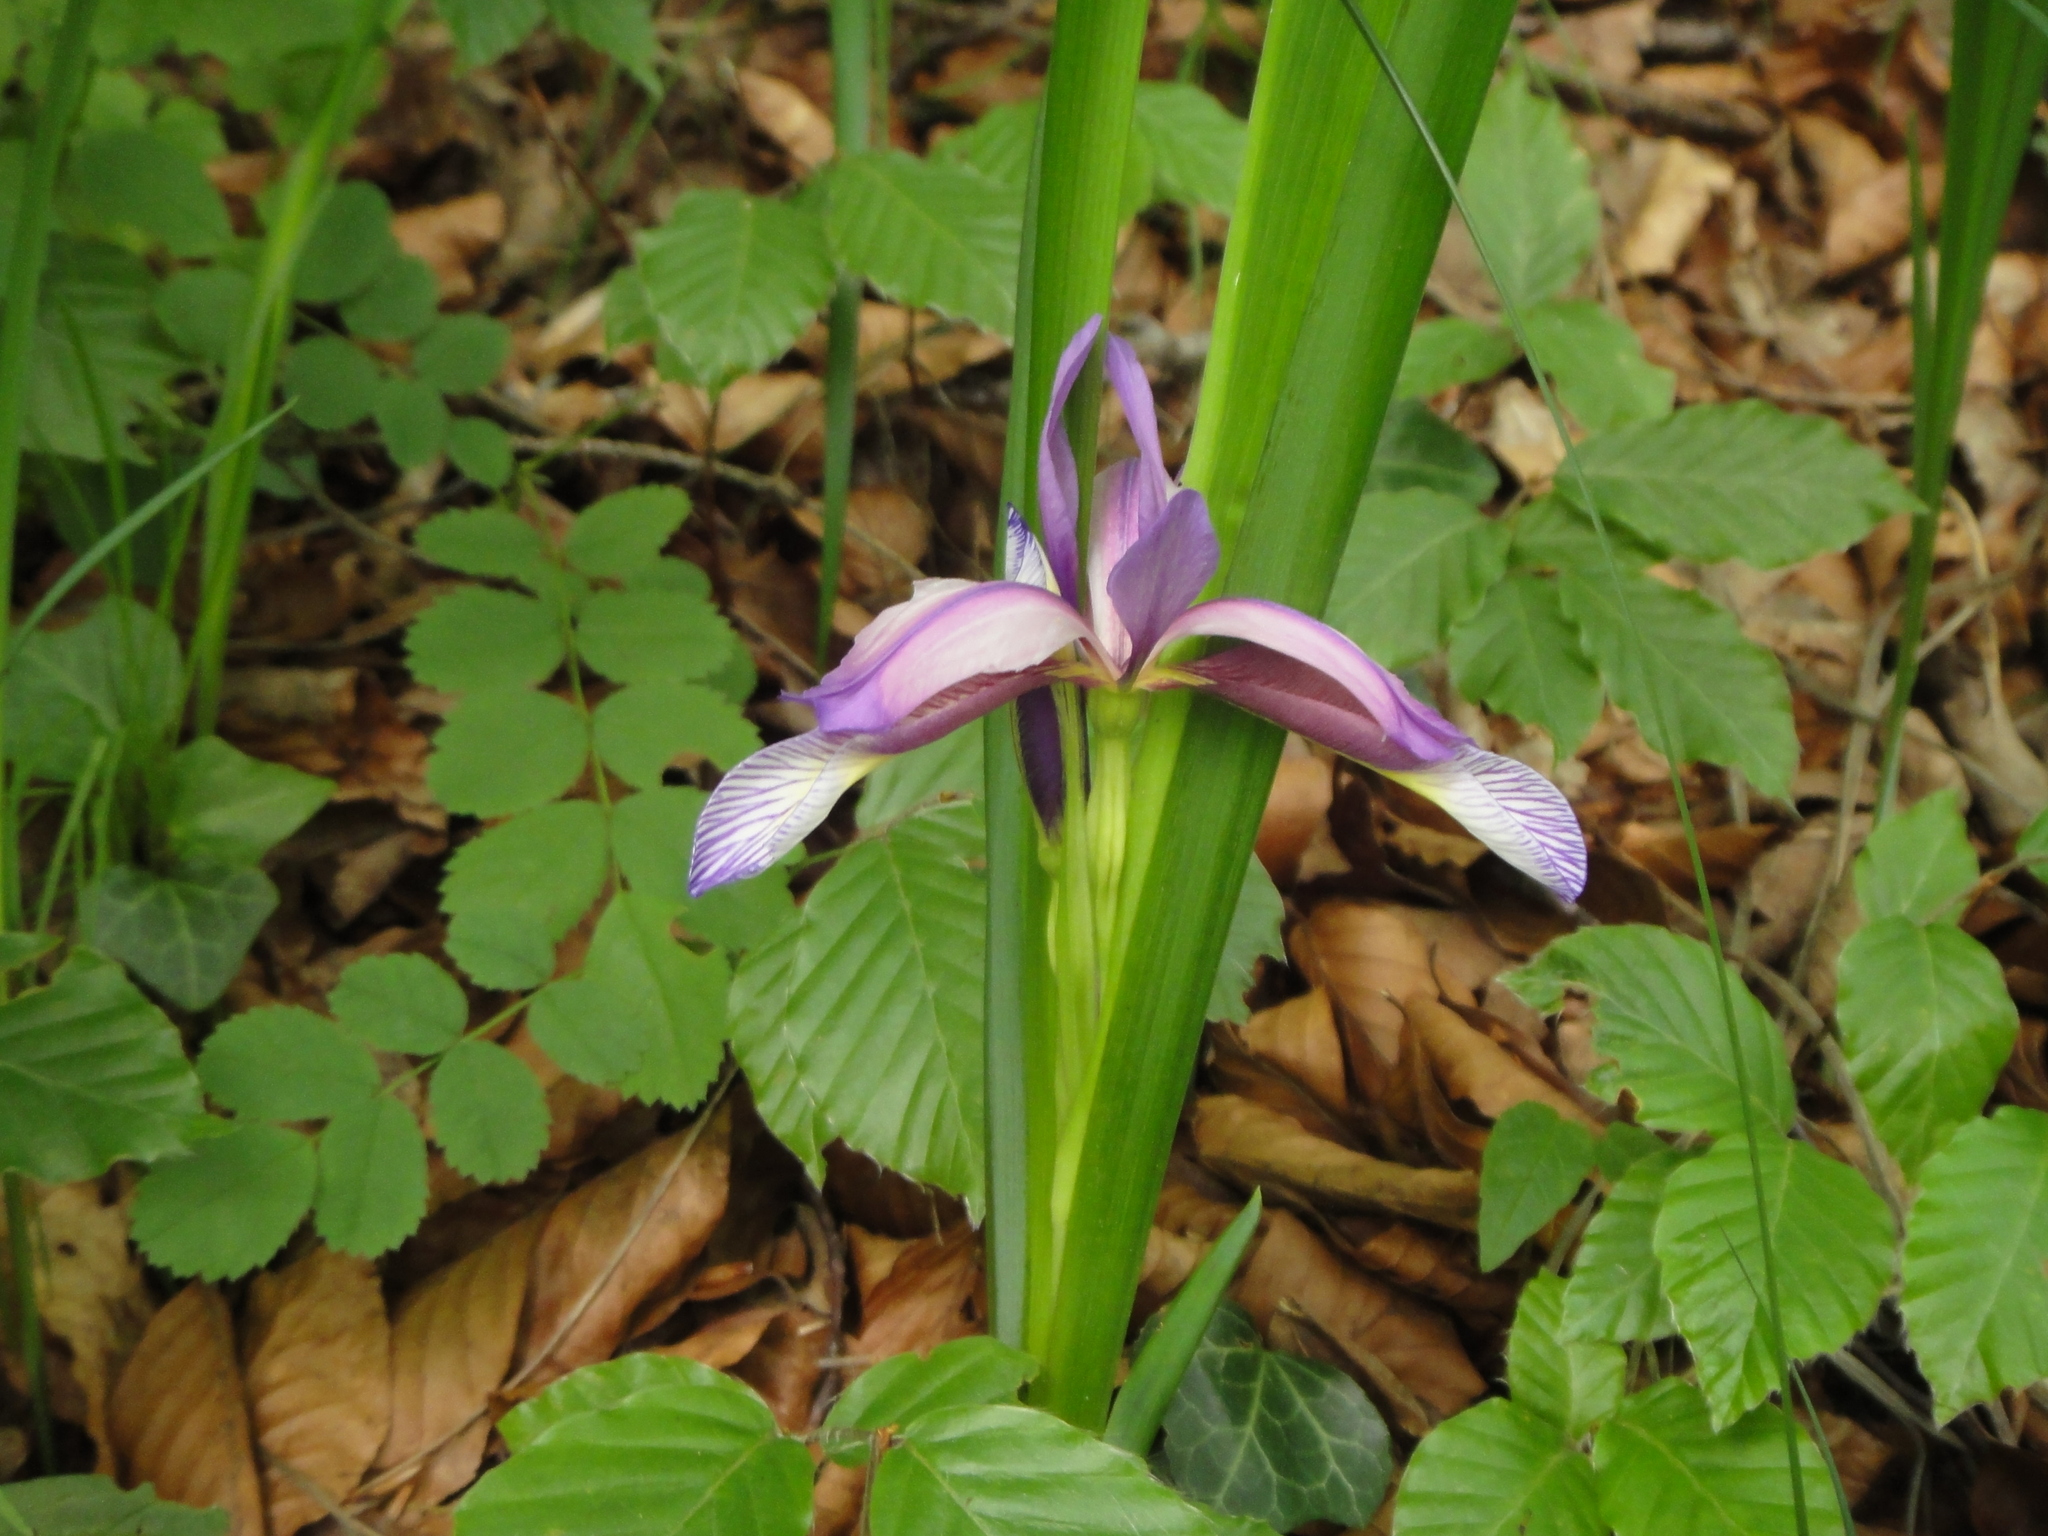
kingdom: Plantae
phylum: Tracheophyta
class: Liliopsida
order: Asparagales
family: Iridaceae
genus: Iris
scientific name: Iris graminea
